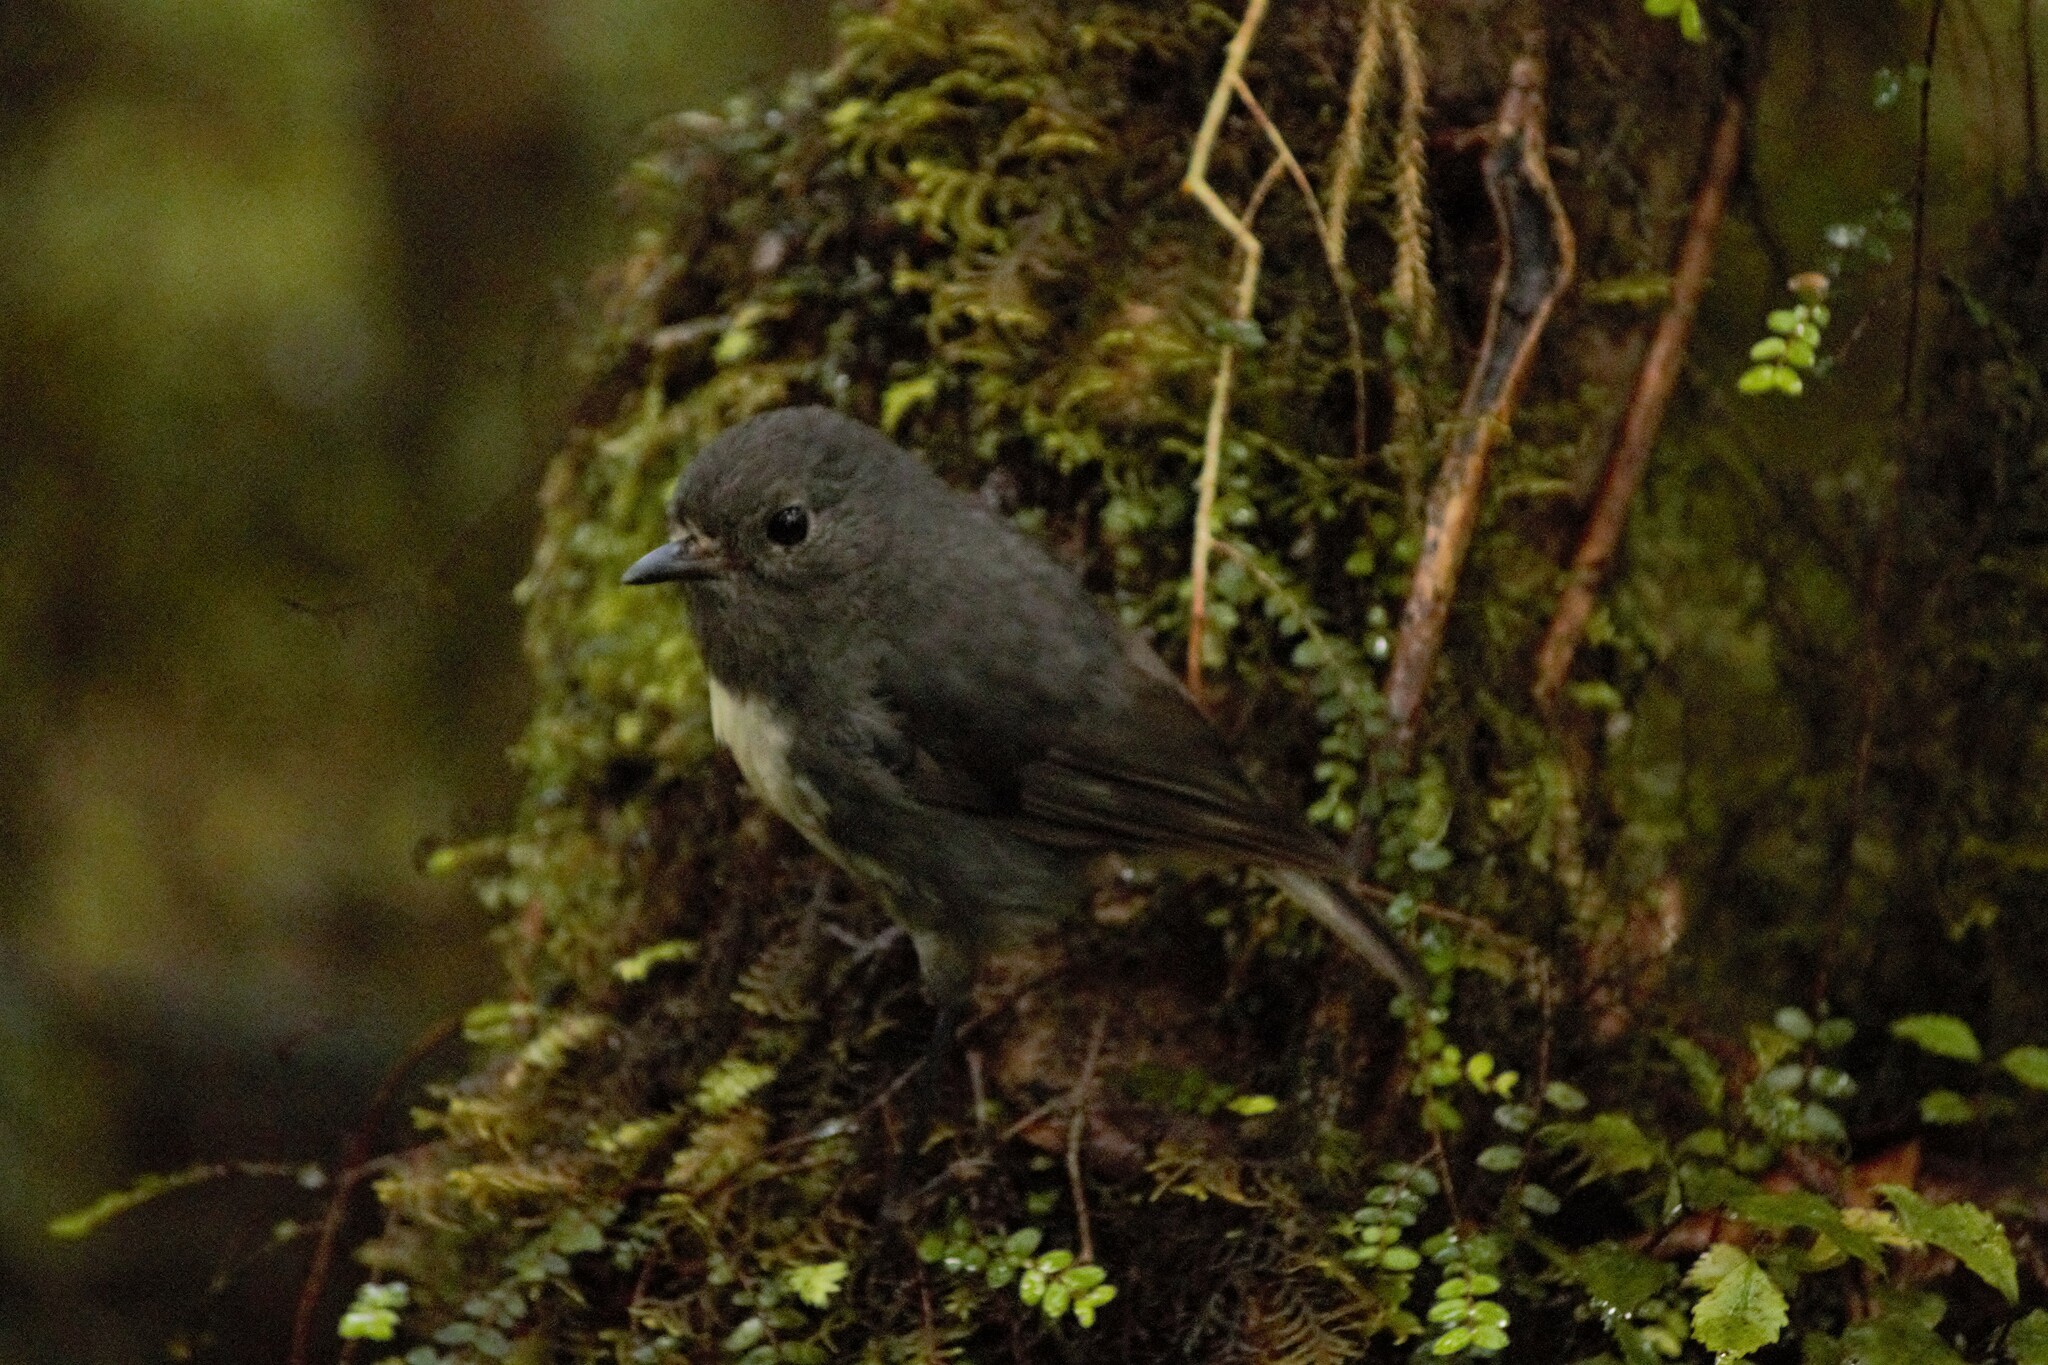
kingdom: Animalia
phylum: Chordata
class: Aves
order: Passeriformes
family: Petroicidae
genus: Petroica
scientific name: Petroica australis
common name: New zealand robin
